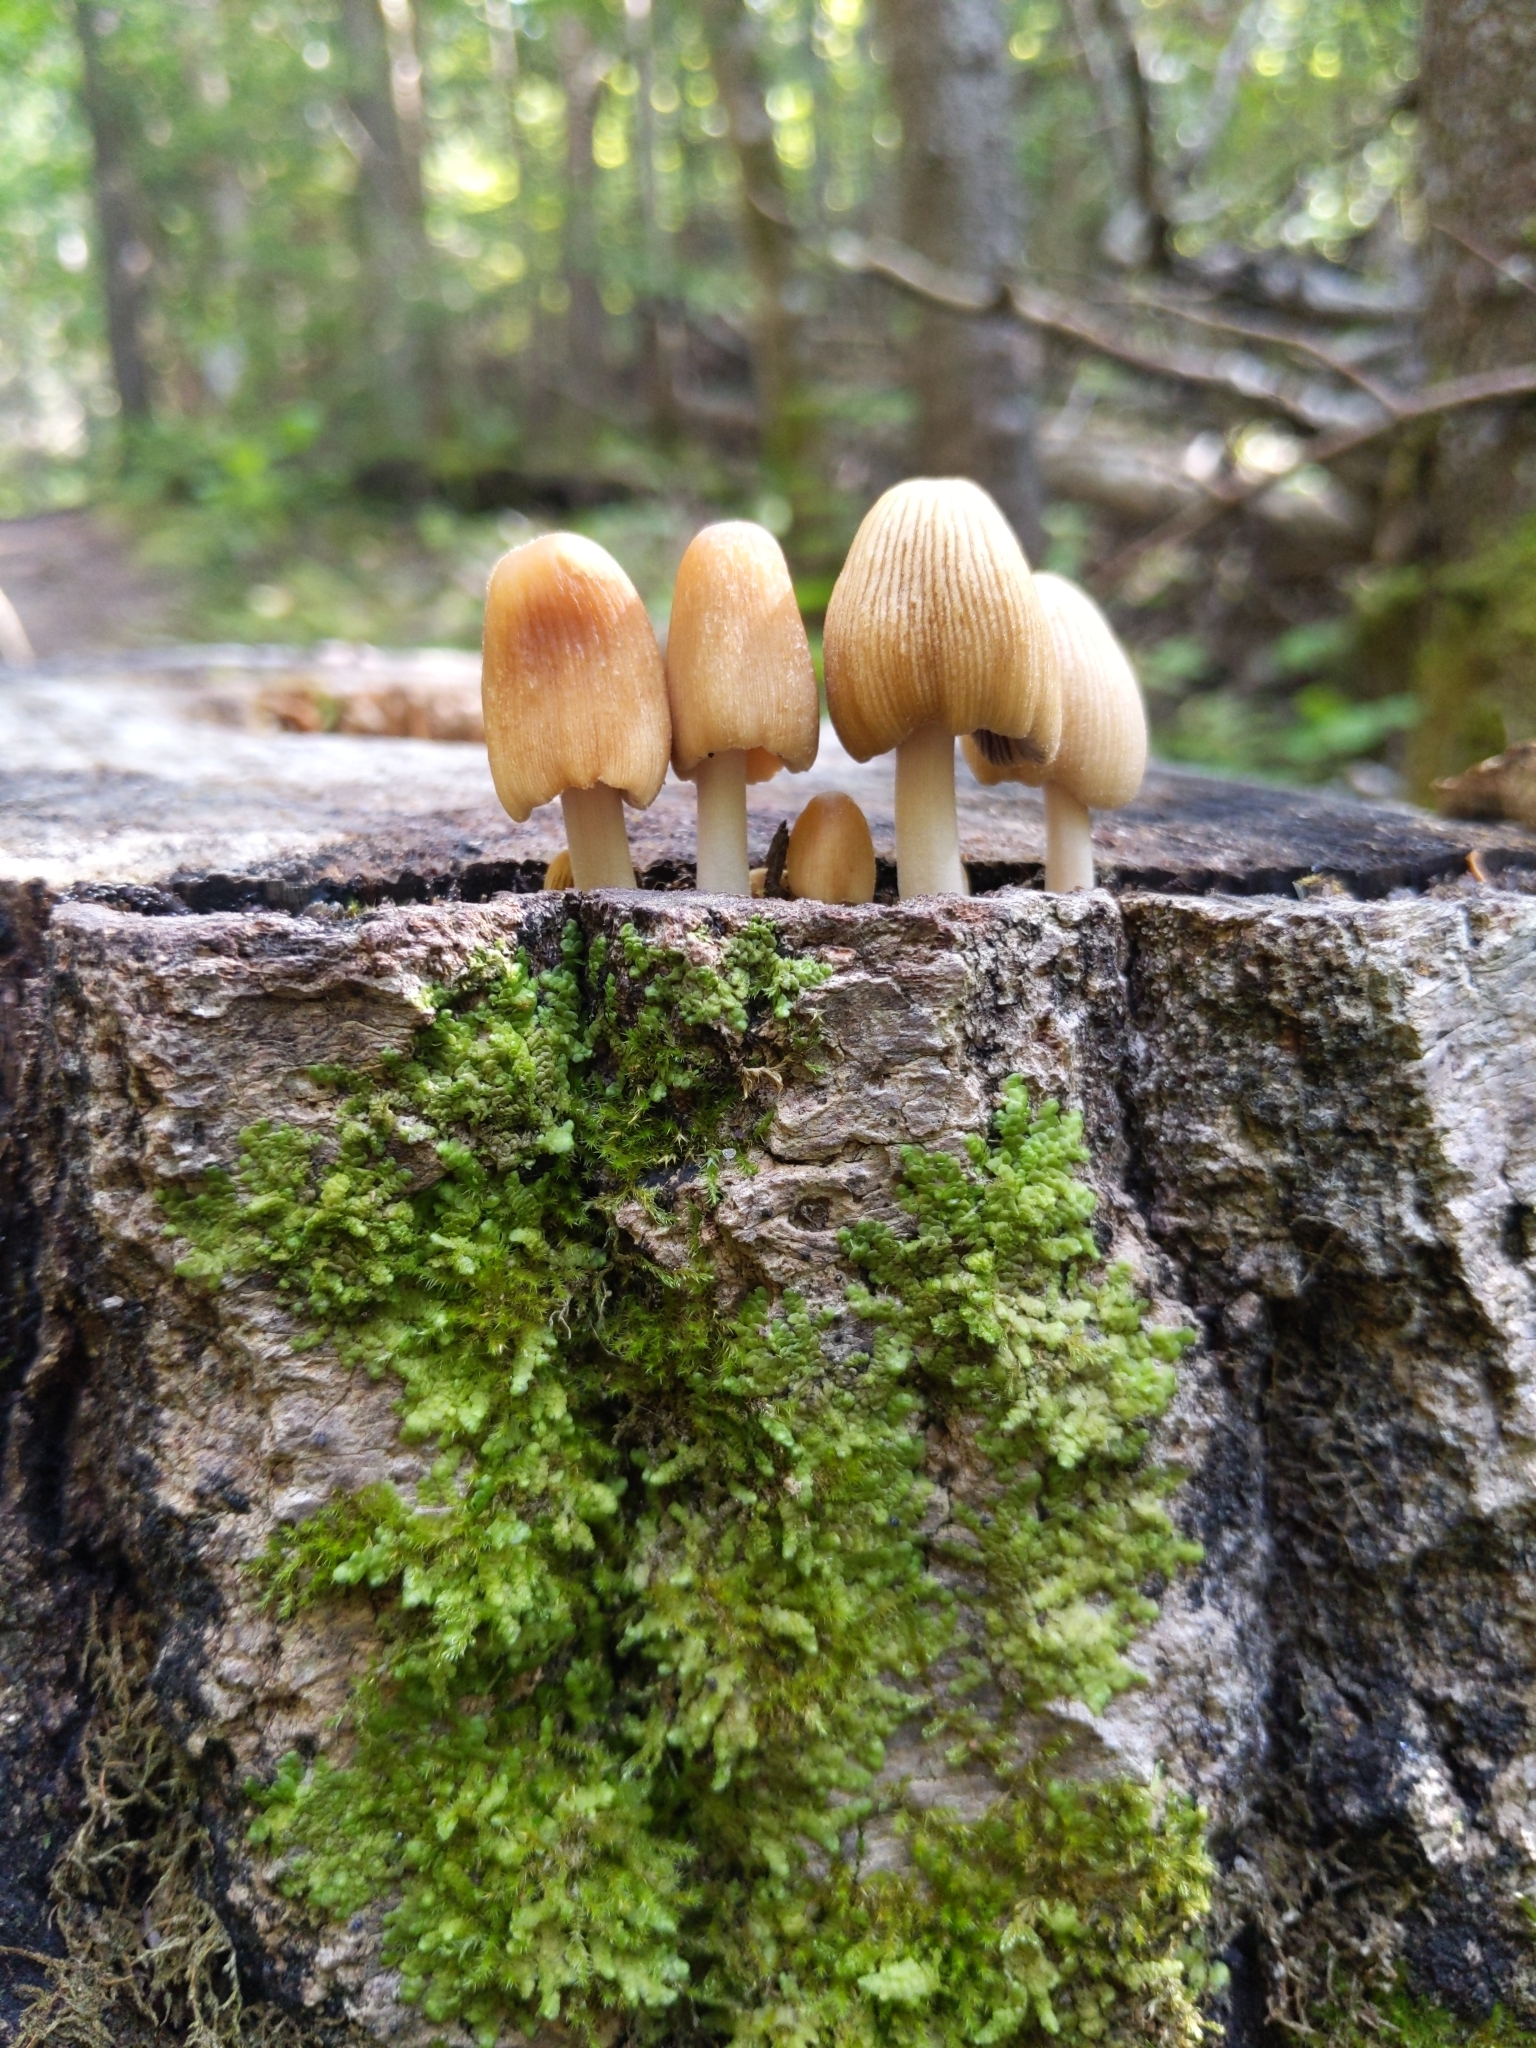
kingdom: Fungi
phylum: Basidiomycota
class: Agaricomycetes
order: Agaricales
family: Psathyrellaceae
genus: Coprinellus
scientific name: Coprinellus micaceus
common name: Glistening ink-cap
